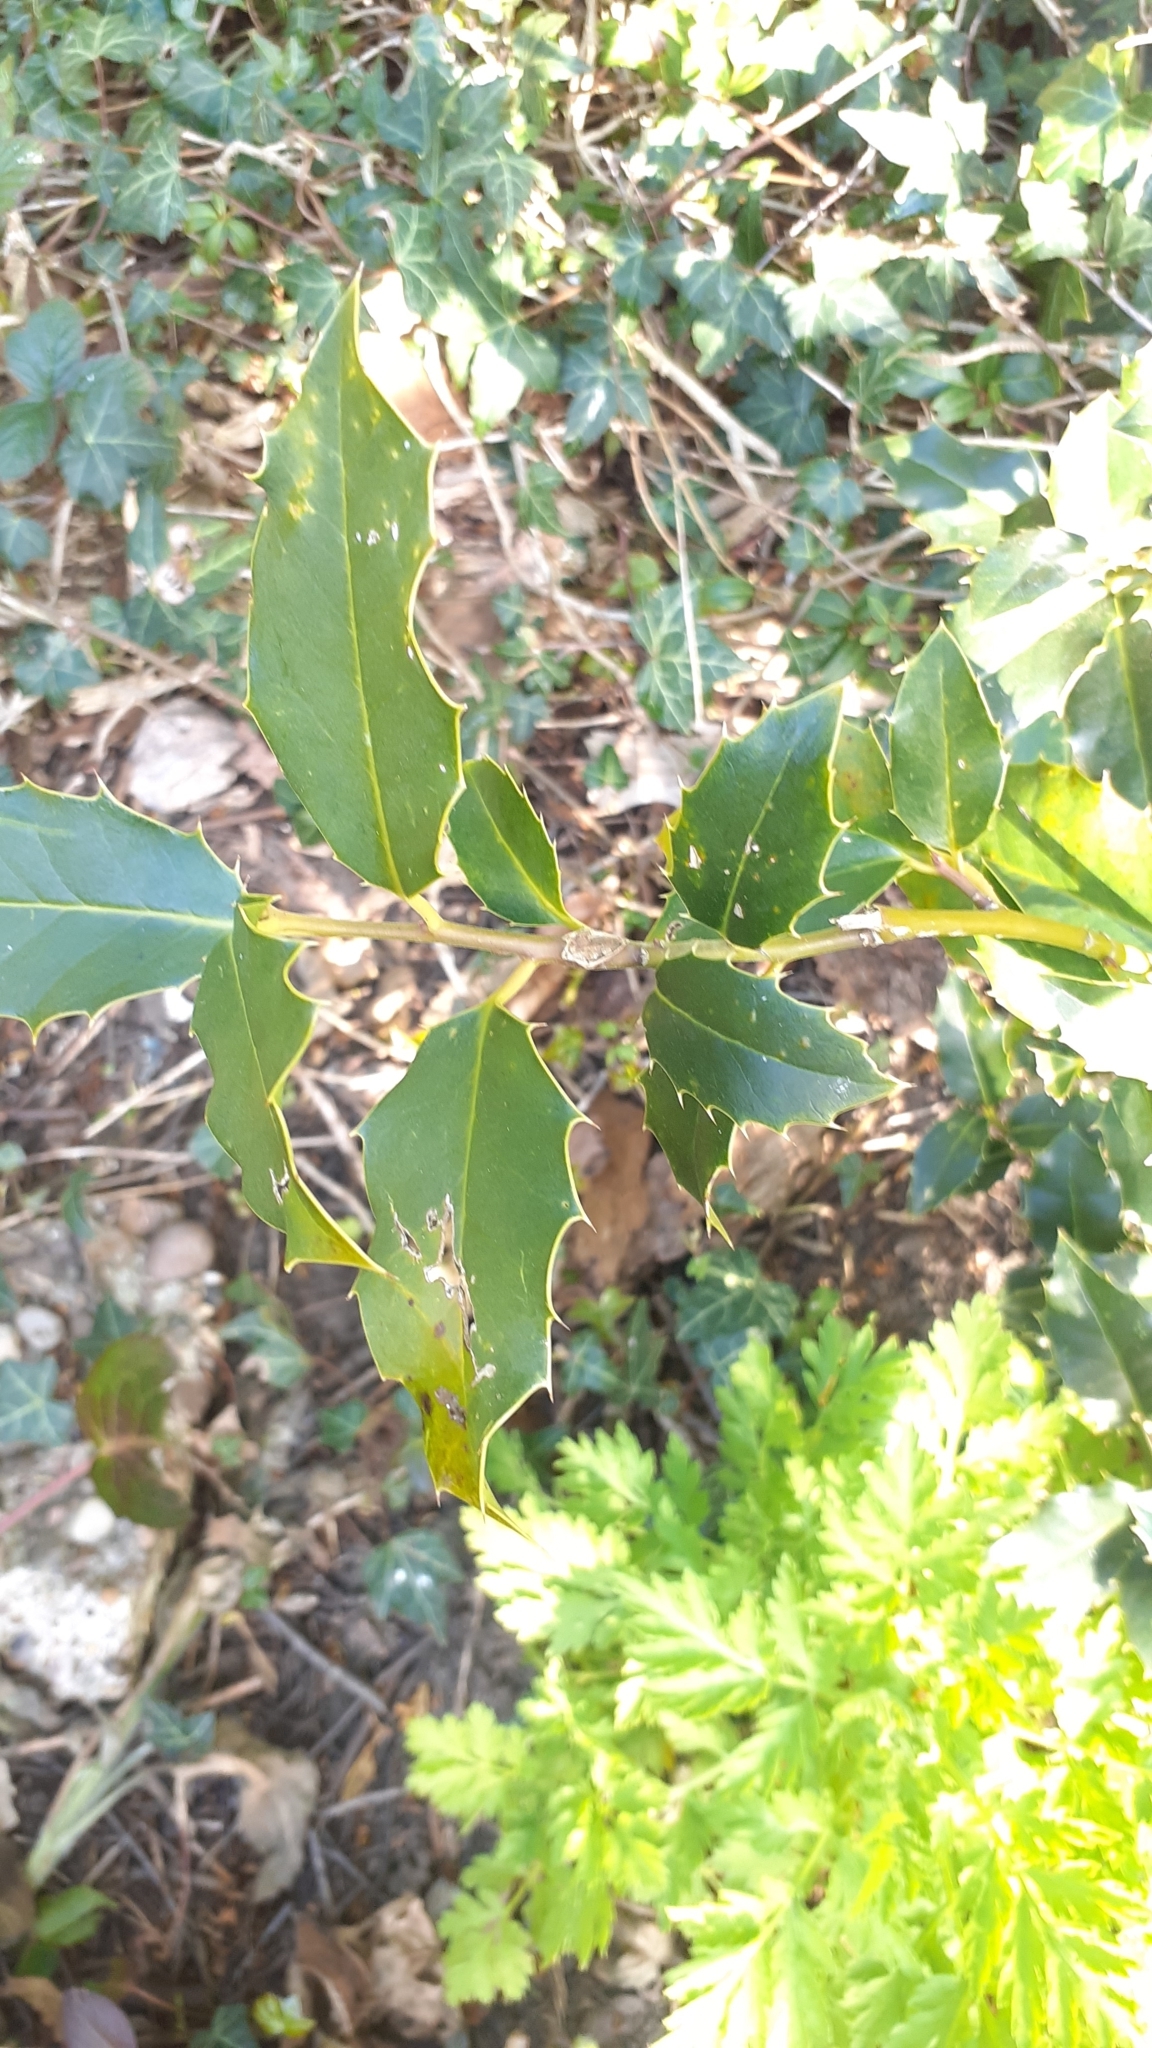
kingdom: Plantae
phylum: Tracheophyta
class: Magnoliopsida
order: Aquifoliales
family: Aquifoliaceae
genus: Ilex
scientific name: Ilex aquifolium
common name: English holly
